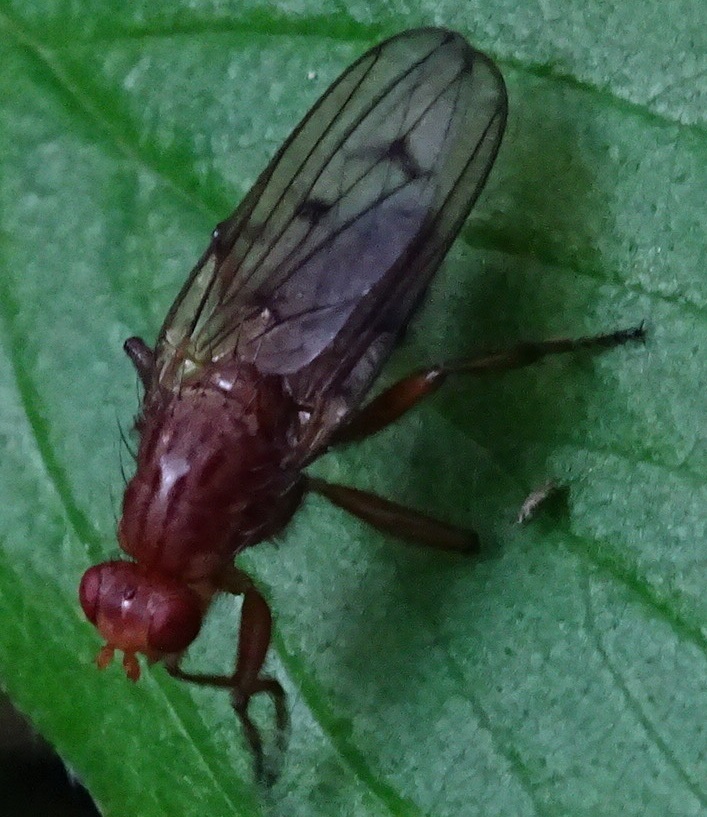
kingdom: Animalia
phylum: Arthropoda
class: Insecta
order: Diptera
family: Dryomyzidae
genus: Dryomyza
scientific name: Dryomyza anilis
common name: Marsh fly
